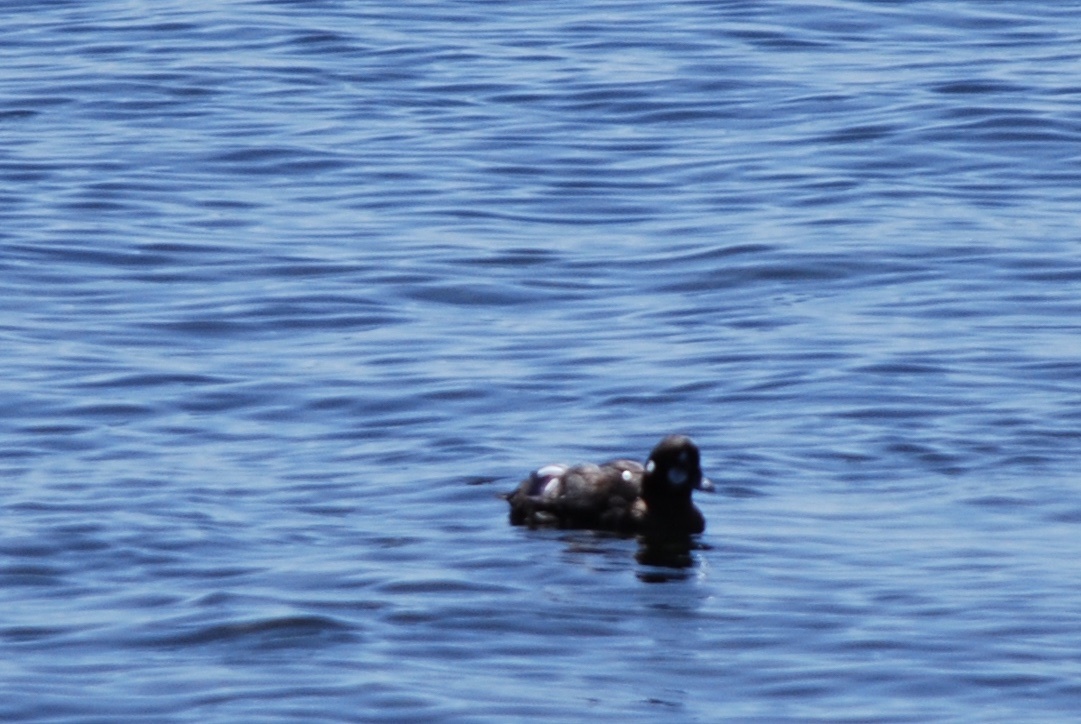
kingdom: Animalia
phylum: Chordata
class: Aves
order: Anseriformes
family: Anatidae
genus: Histrionicus
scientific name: Histrionicus histrionicus
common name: Harlequin duck
